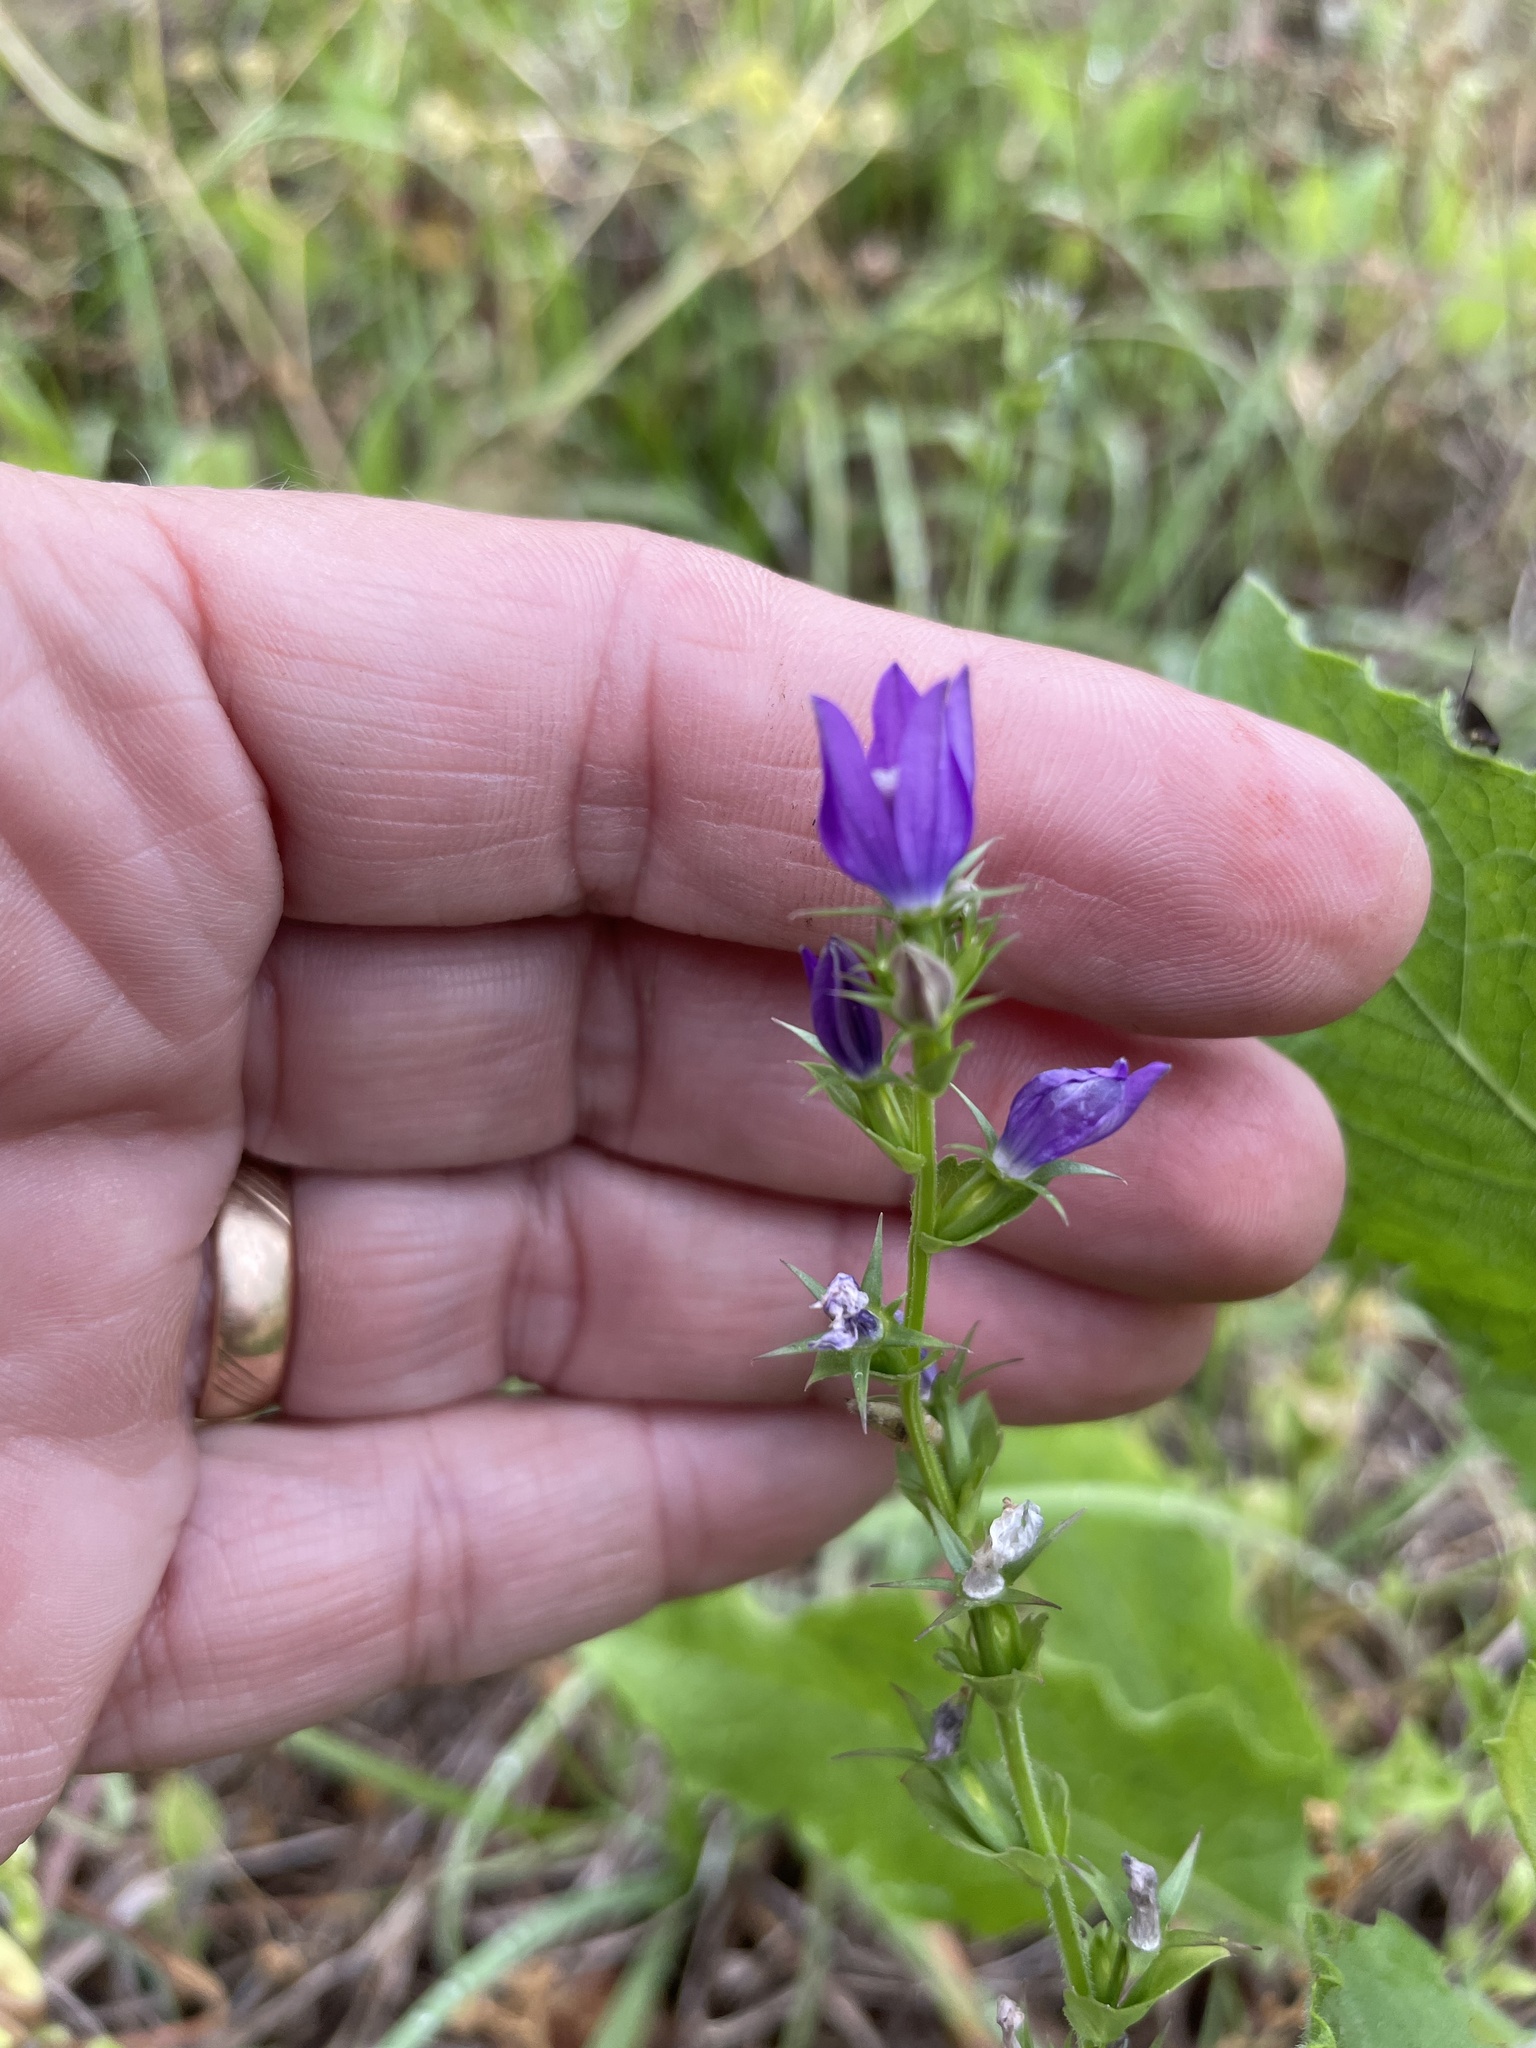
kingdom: Plantae
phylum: Tracheophyta
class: Magnoliopsida
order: Asterales
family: Campanulaceae
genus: Triodanis
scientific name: Triodanis perfoliata
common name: Clasping venus' looking-glass
